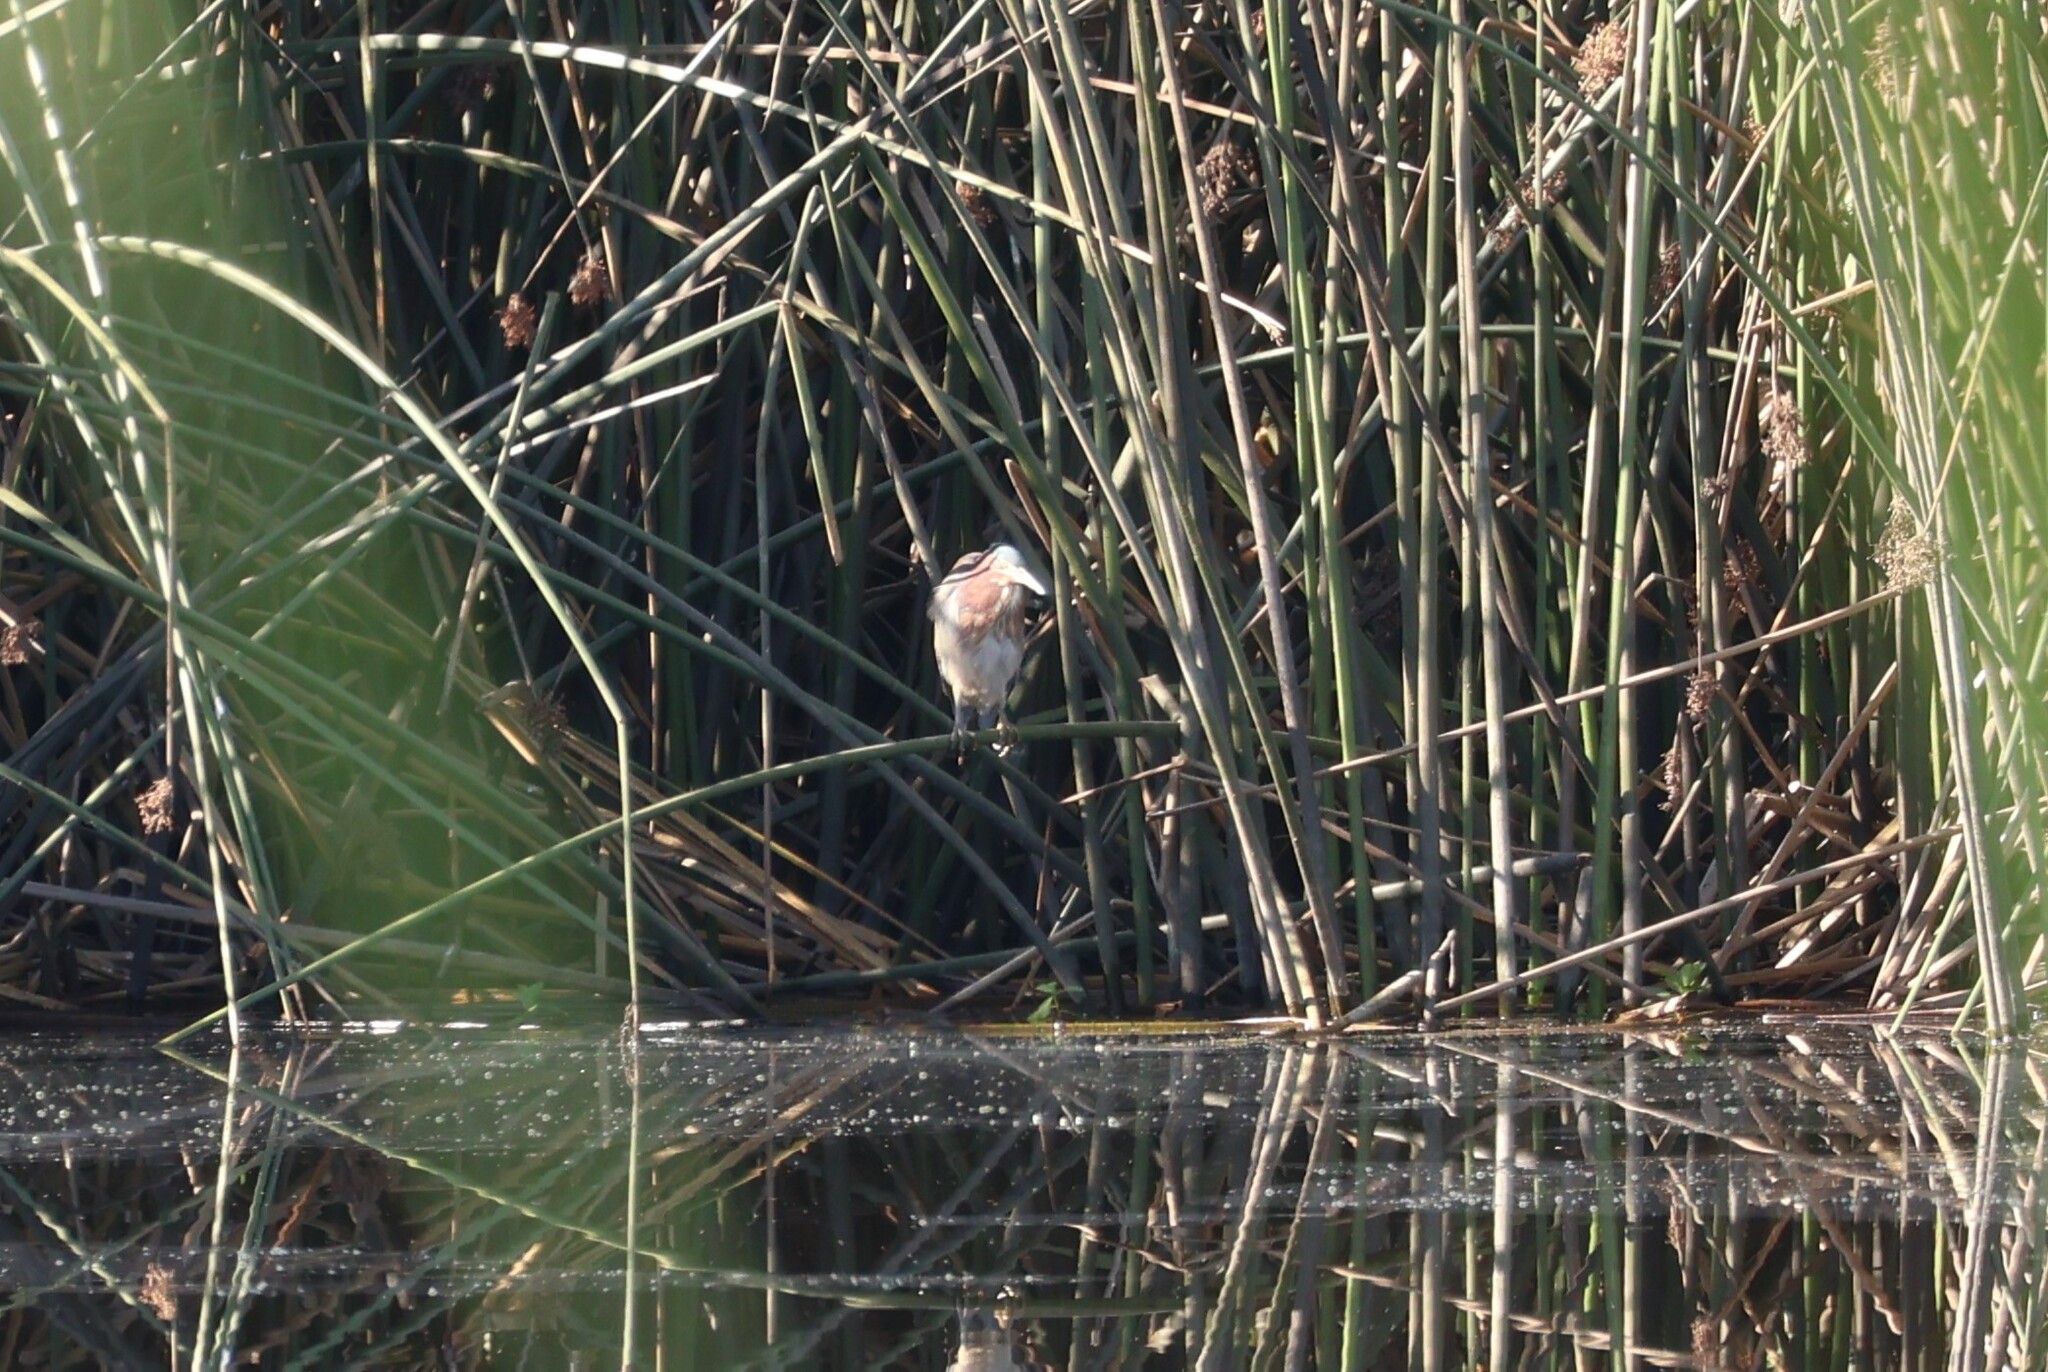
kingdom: Animalia
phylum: Chordata
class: Aves
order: Pelecaniformes
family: Ardeidae
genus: Butorides
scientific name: Butorides virescens
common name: Green heron
